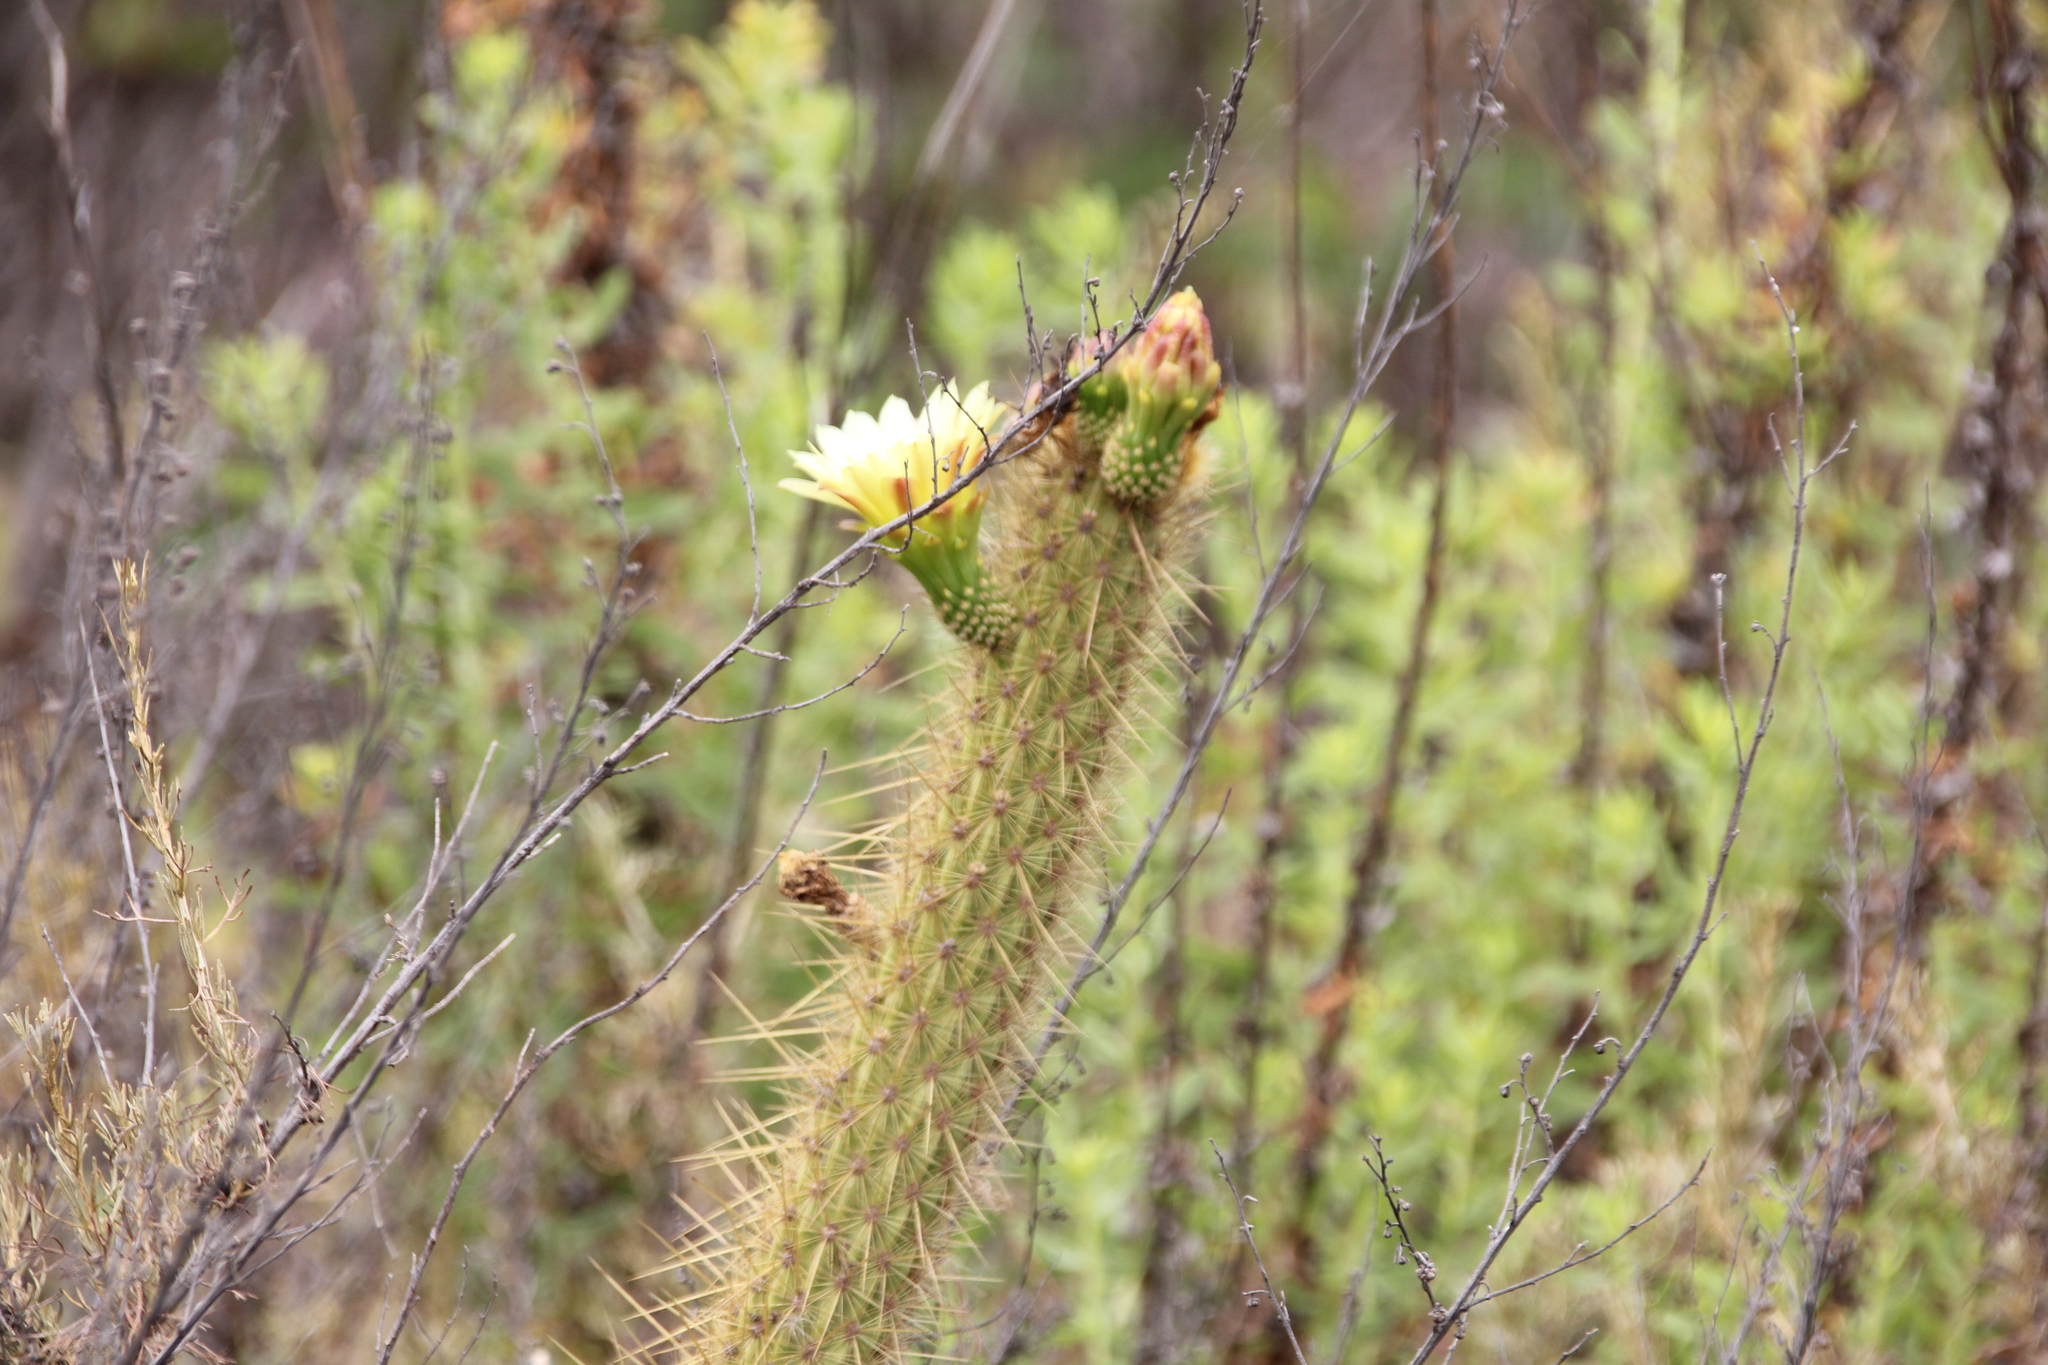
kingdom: Plantae
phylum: Tracheophyta
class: Magnoliopsida
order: Caryophyllales
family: Cactaceae
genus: Bergerocactus
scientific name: Bergerocactus emoryi
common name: Golden snakecactus
